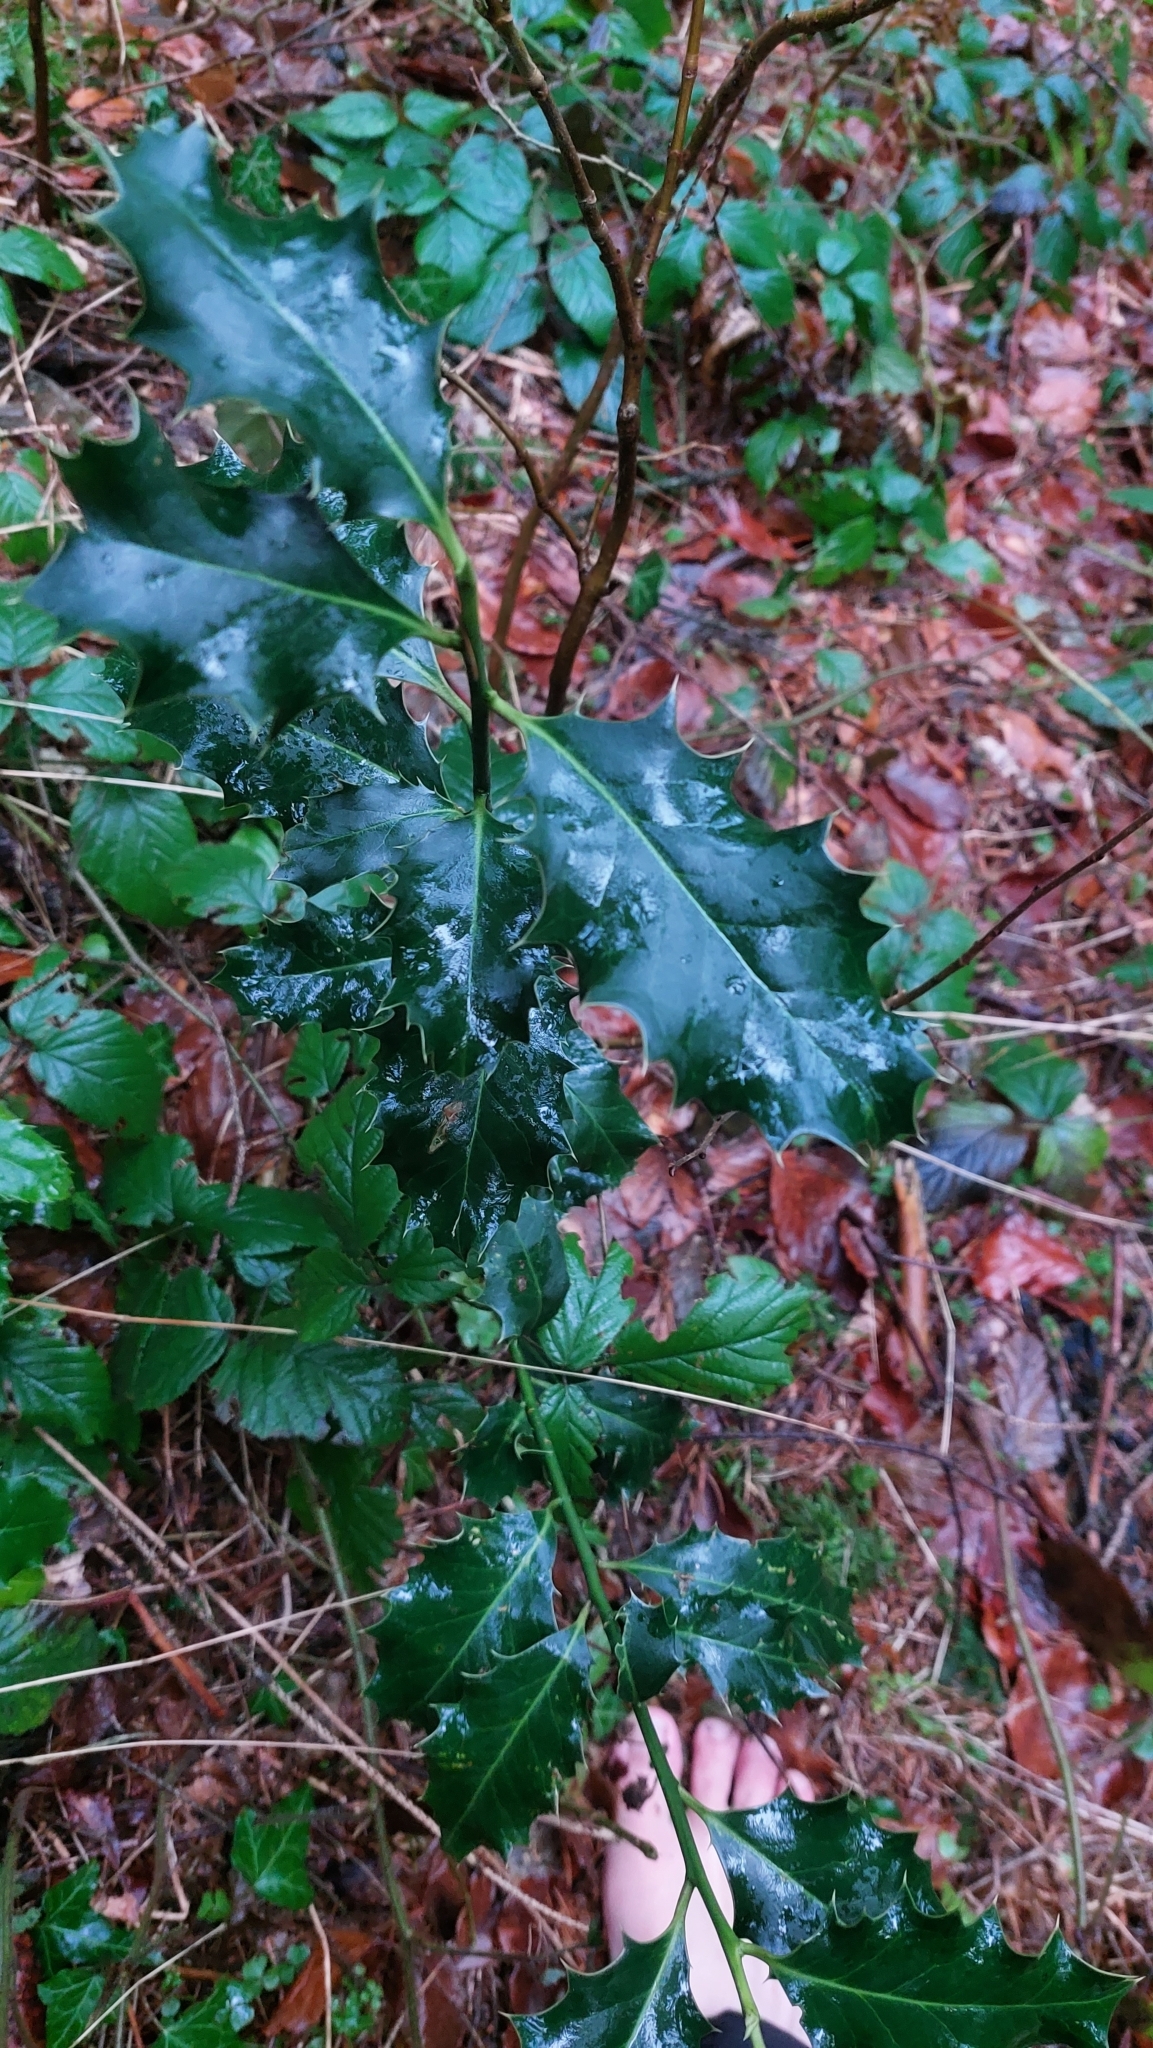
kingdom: Plantae
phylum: Tracheophyta
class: Magnoliopsida
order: Aquifoliales
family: Aquifoliaceae
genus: Ilex
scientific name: Ilex aquifolium
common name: English holly
